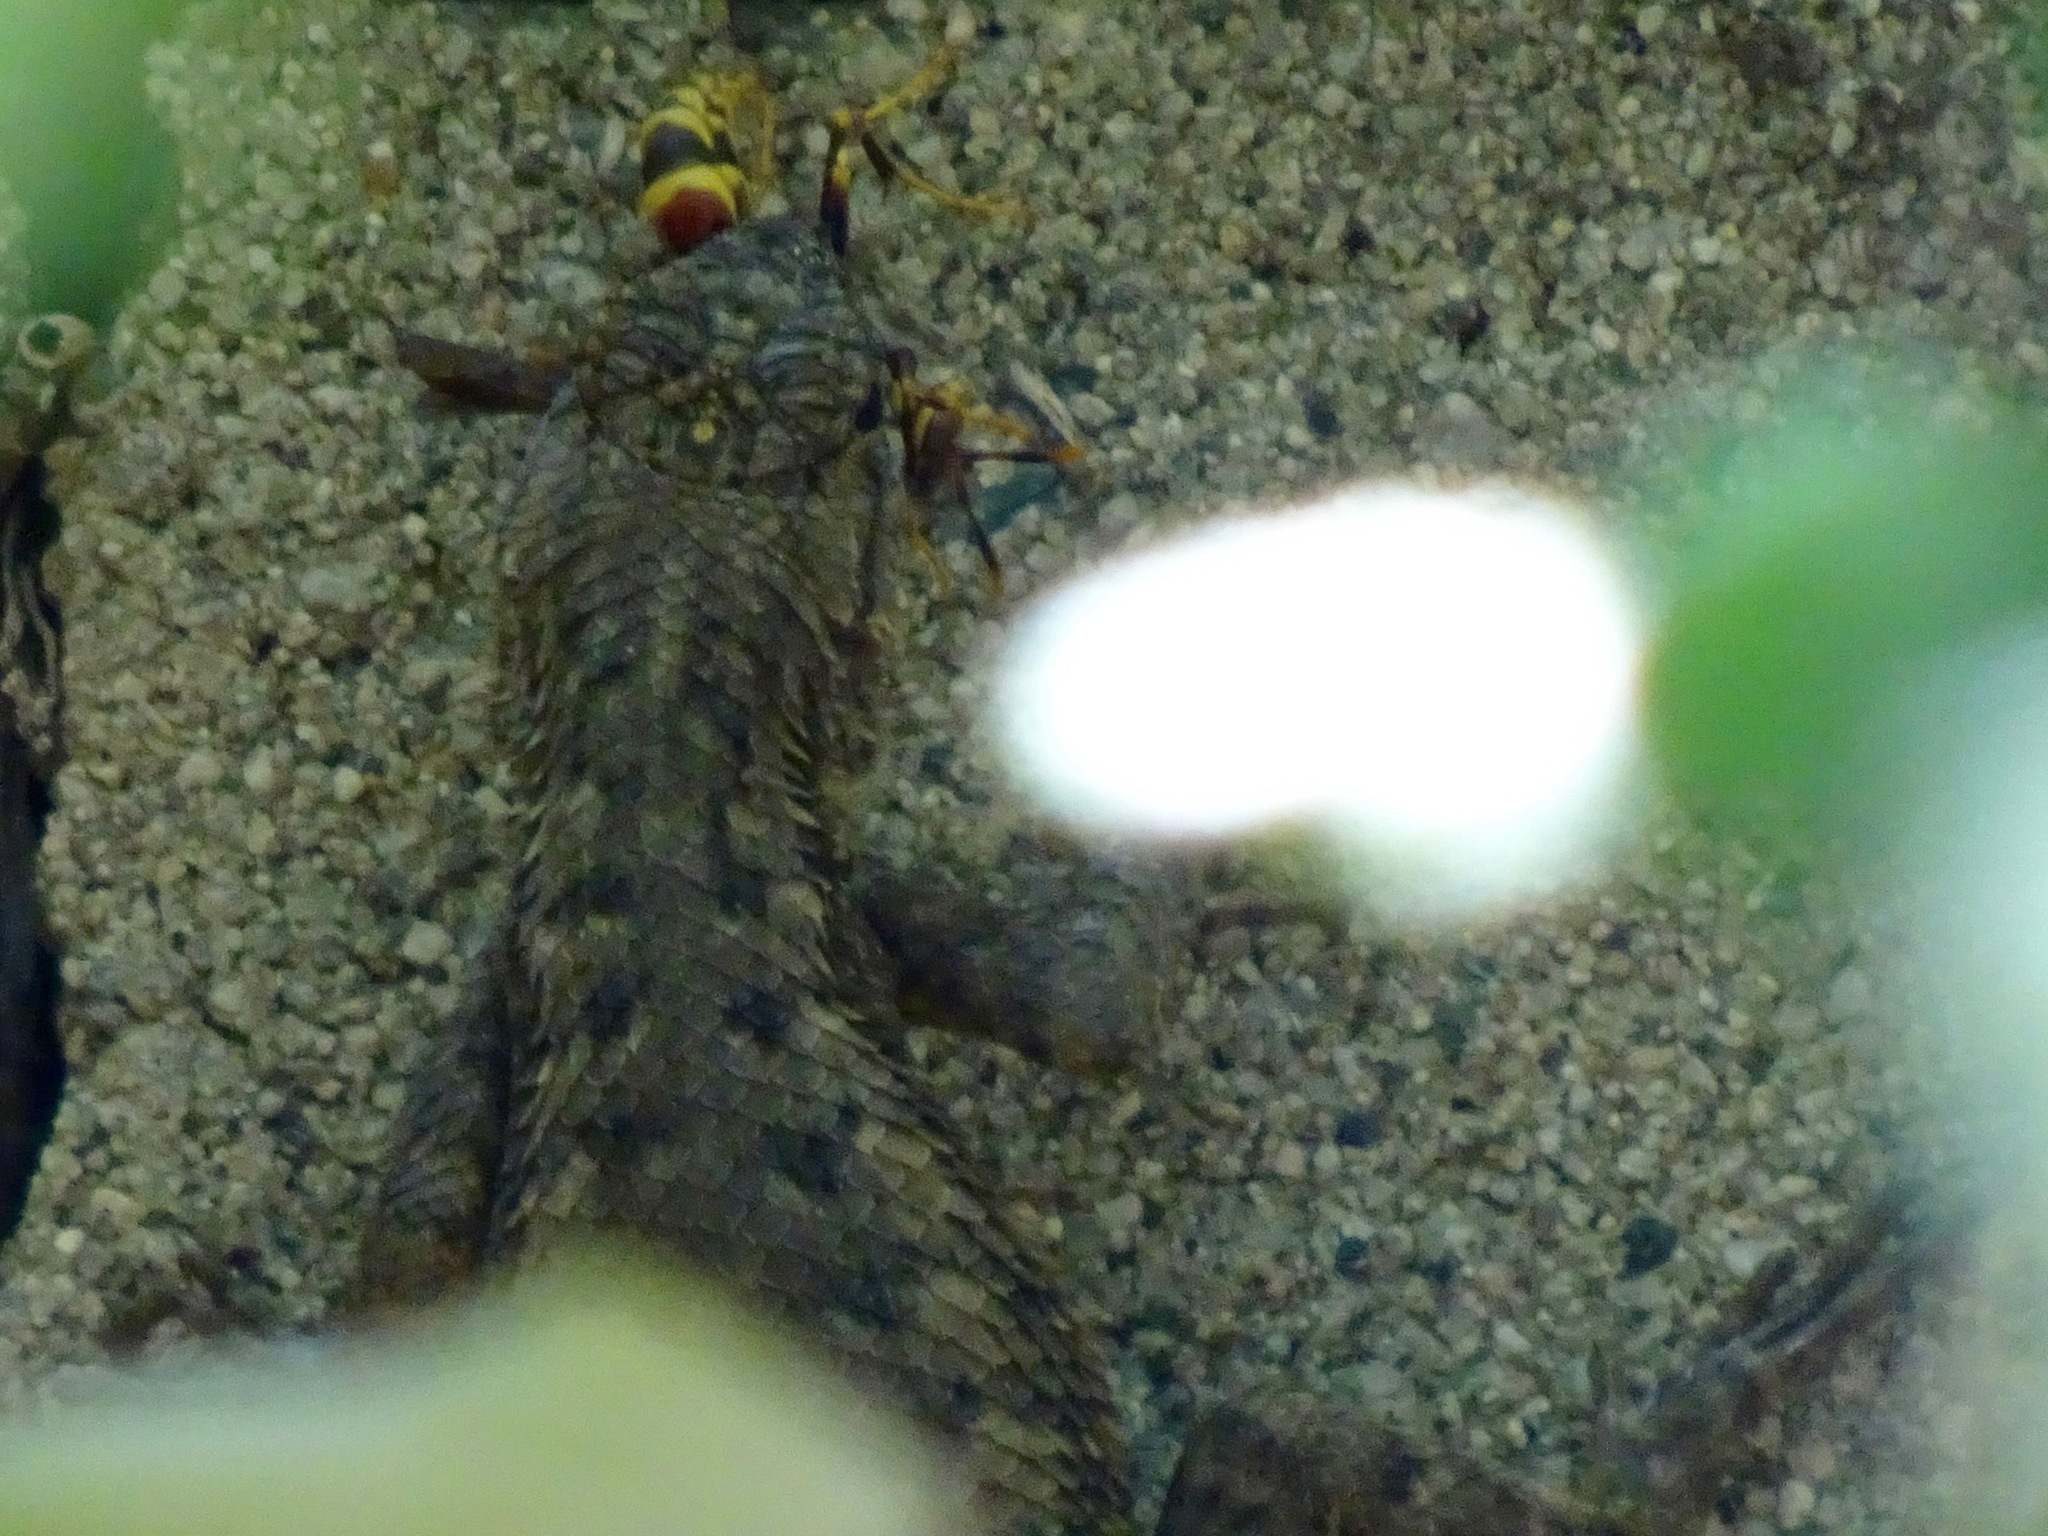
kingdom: Animalia
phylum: Chordata
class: Squamata
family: Phrynosomatidae
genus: Sceloporus
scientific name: Sceloporus occidentalis
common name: Western fence lizard
